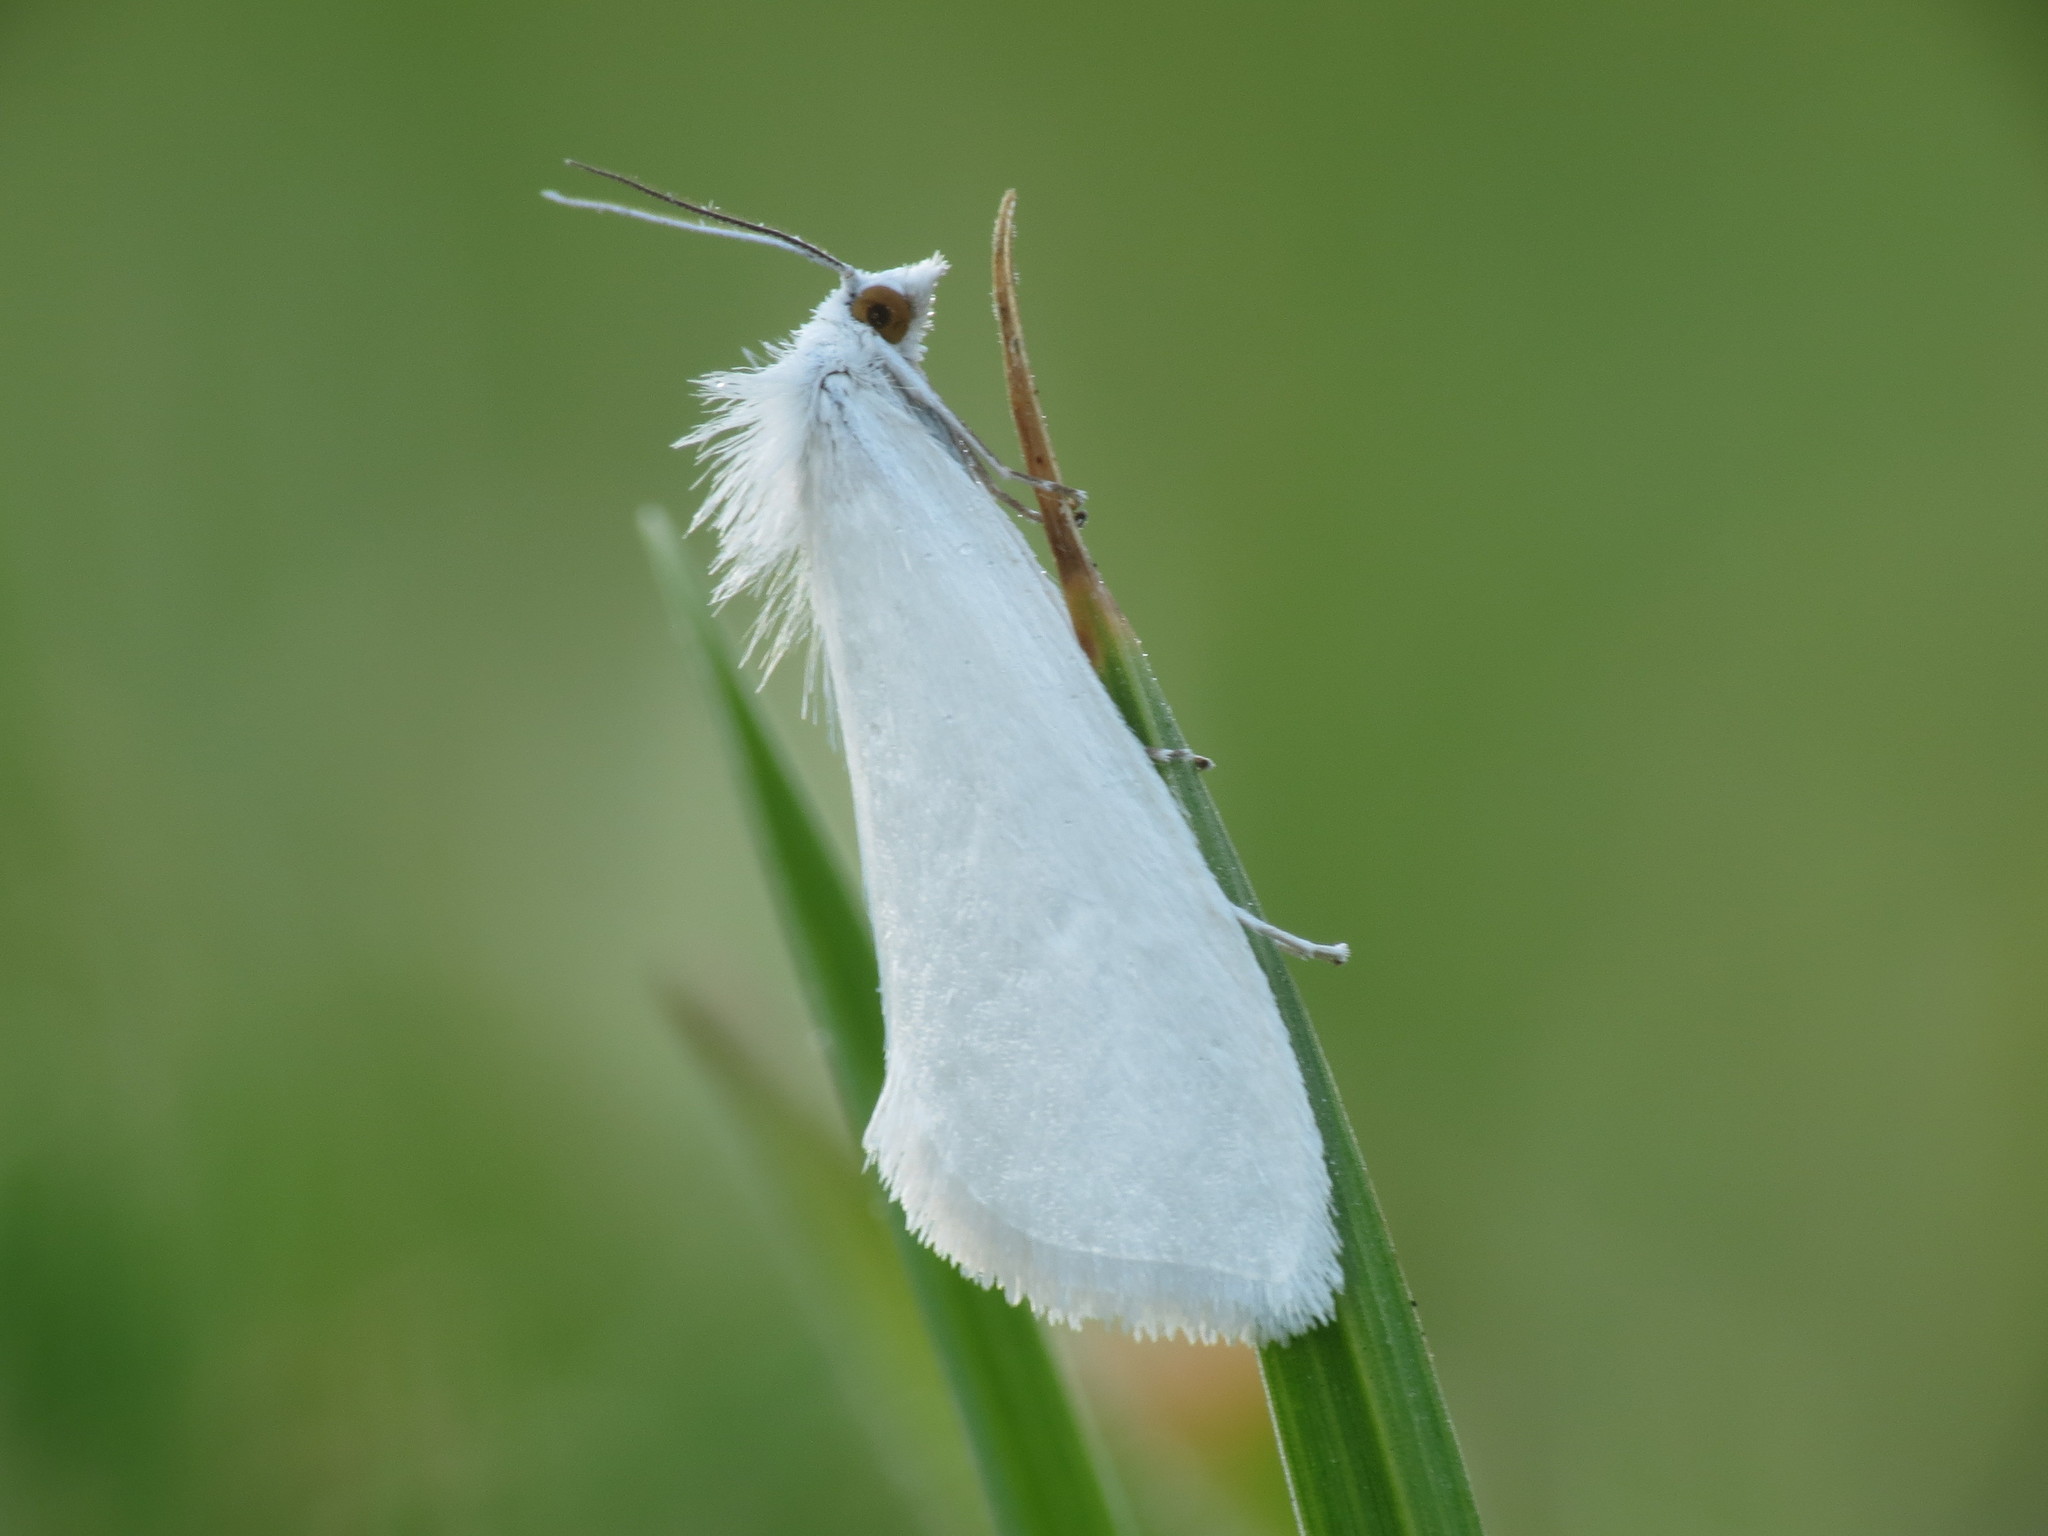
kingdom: Animalia
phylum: Arthropoda
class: Insecta
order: Lepidoptera
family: Crambidae
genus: Tipanaea
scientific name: Tipanaea patulella
